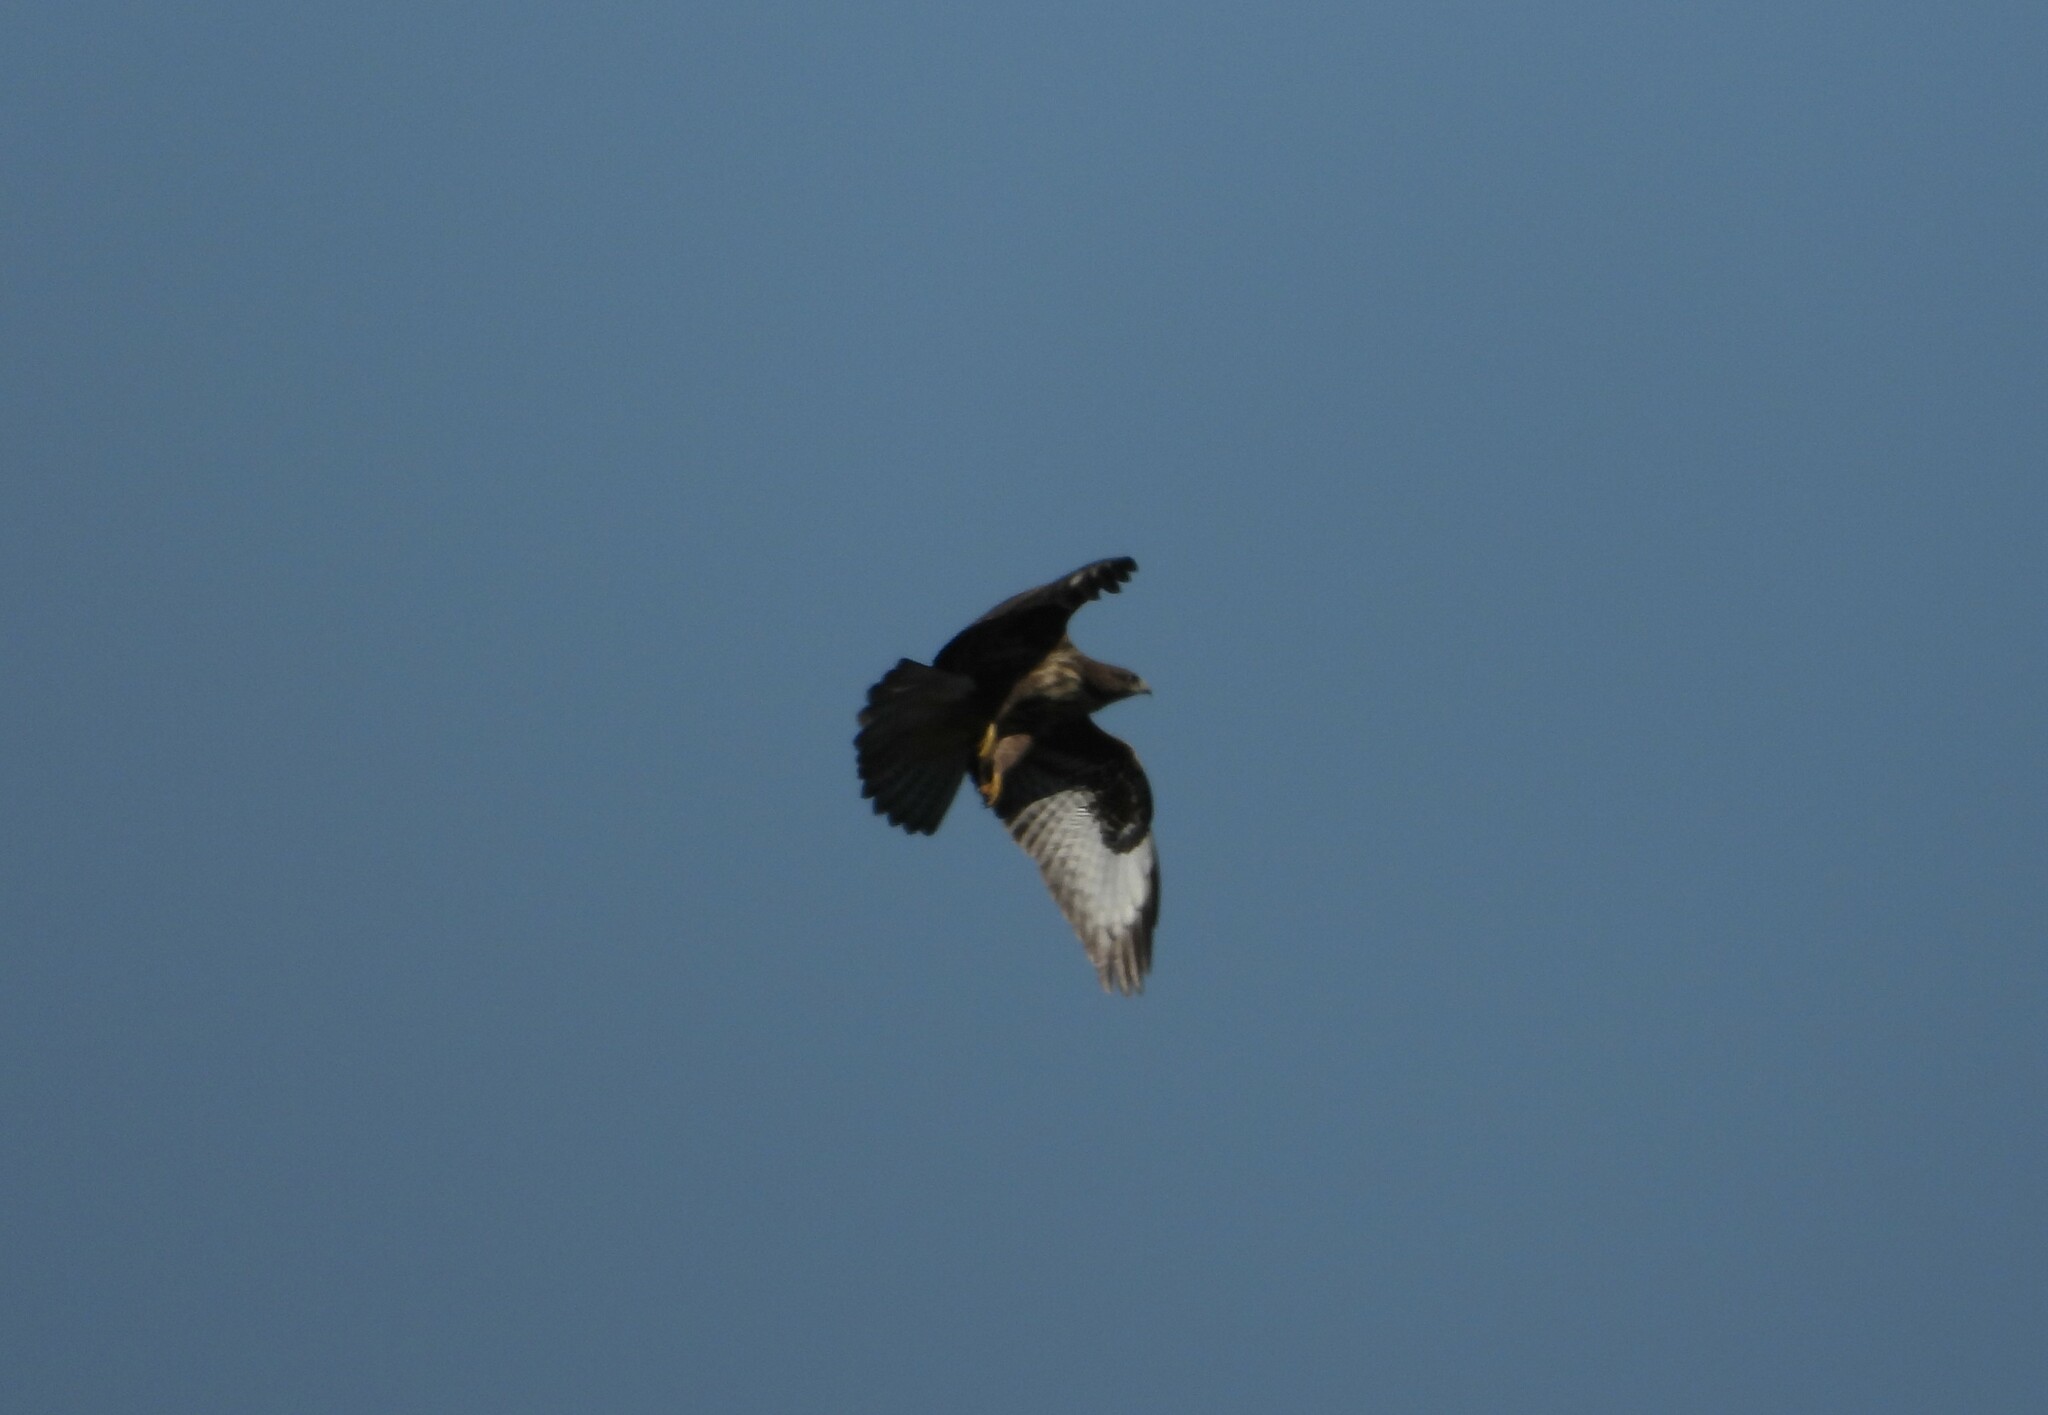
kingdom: Animalia
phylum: Chordata
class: Aves
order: Accipitriformes
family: Accipitridae
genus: Buteo
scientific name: Buteo buteo
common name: Common buzzard
